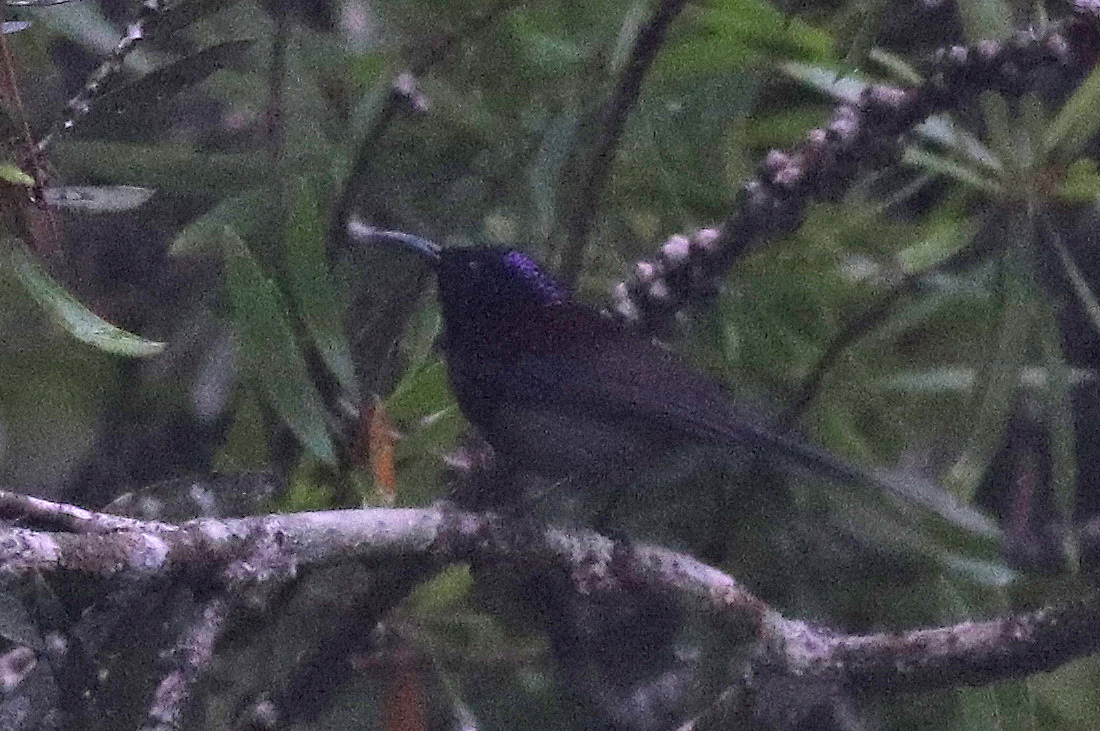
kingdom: Animalia
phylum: Chordata
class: Aves
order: Passeriformes
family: Nectariniidae
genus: Aethopyga
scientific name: Aethopyga saturata
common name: Black-throated sunbird
